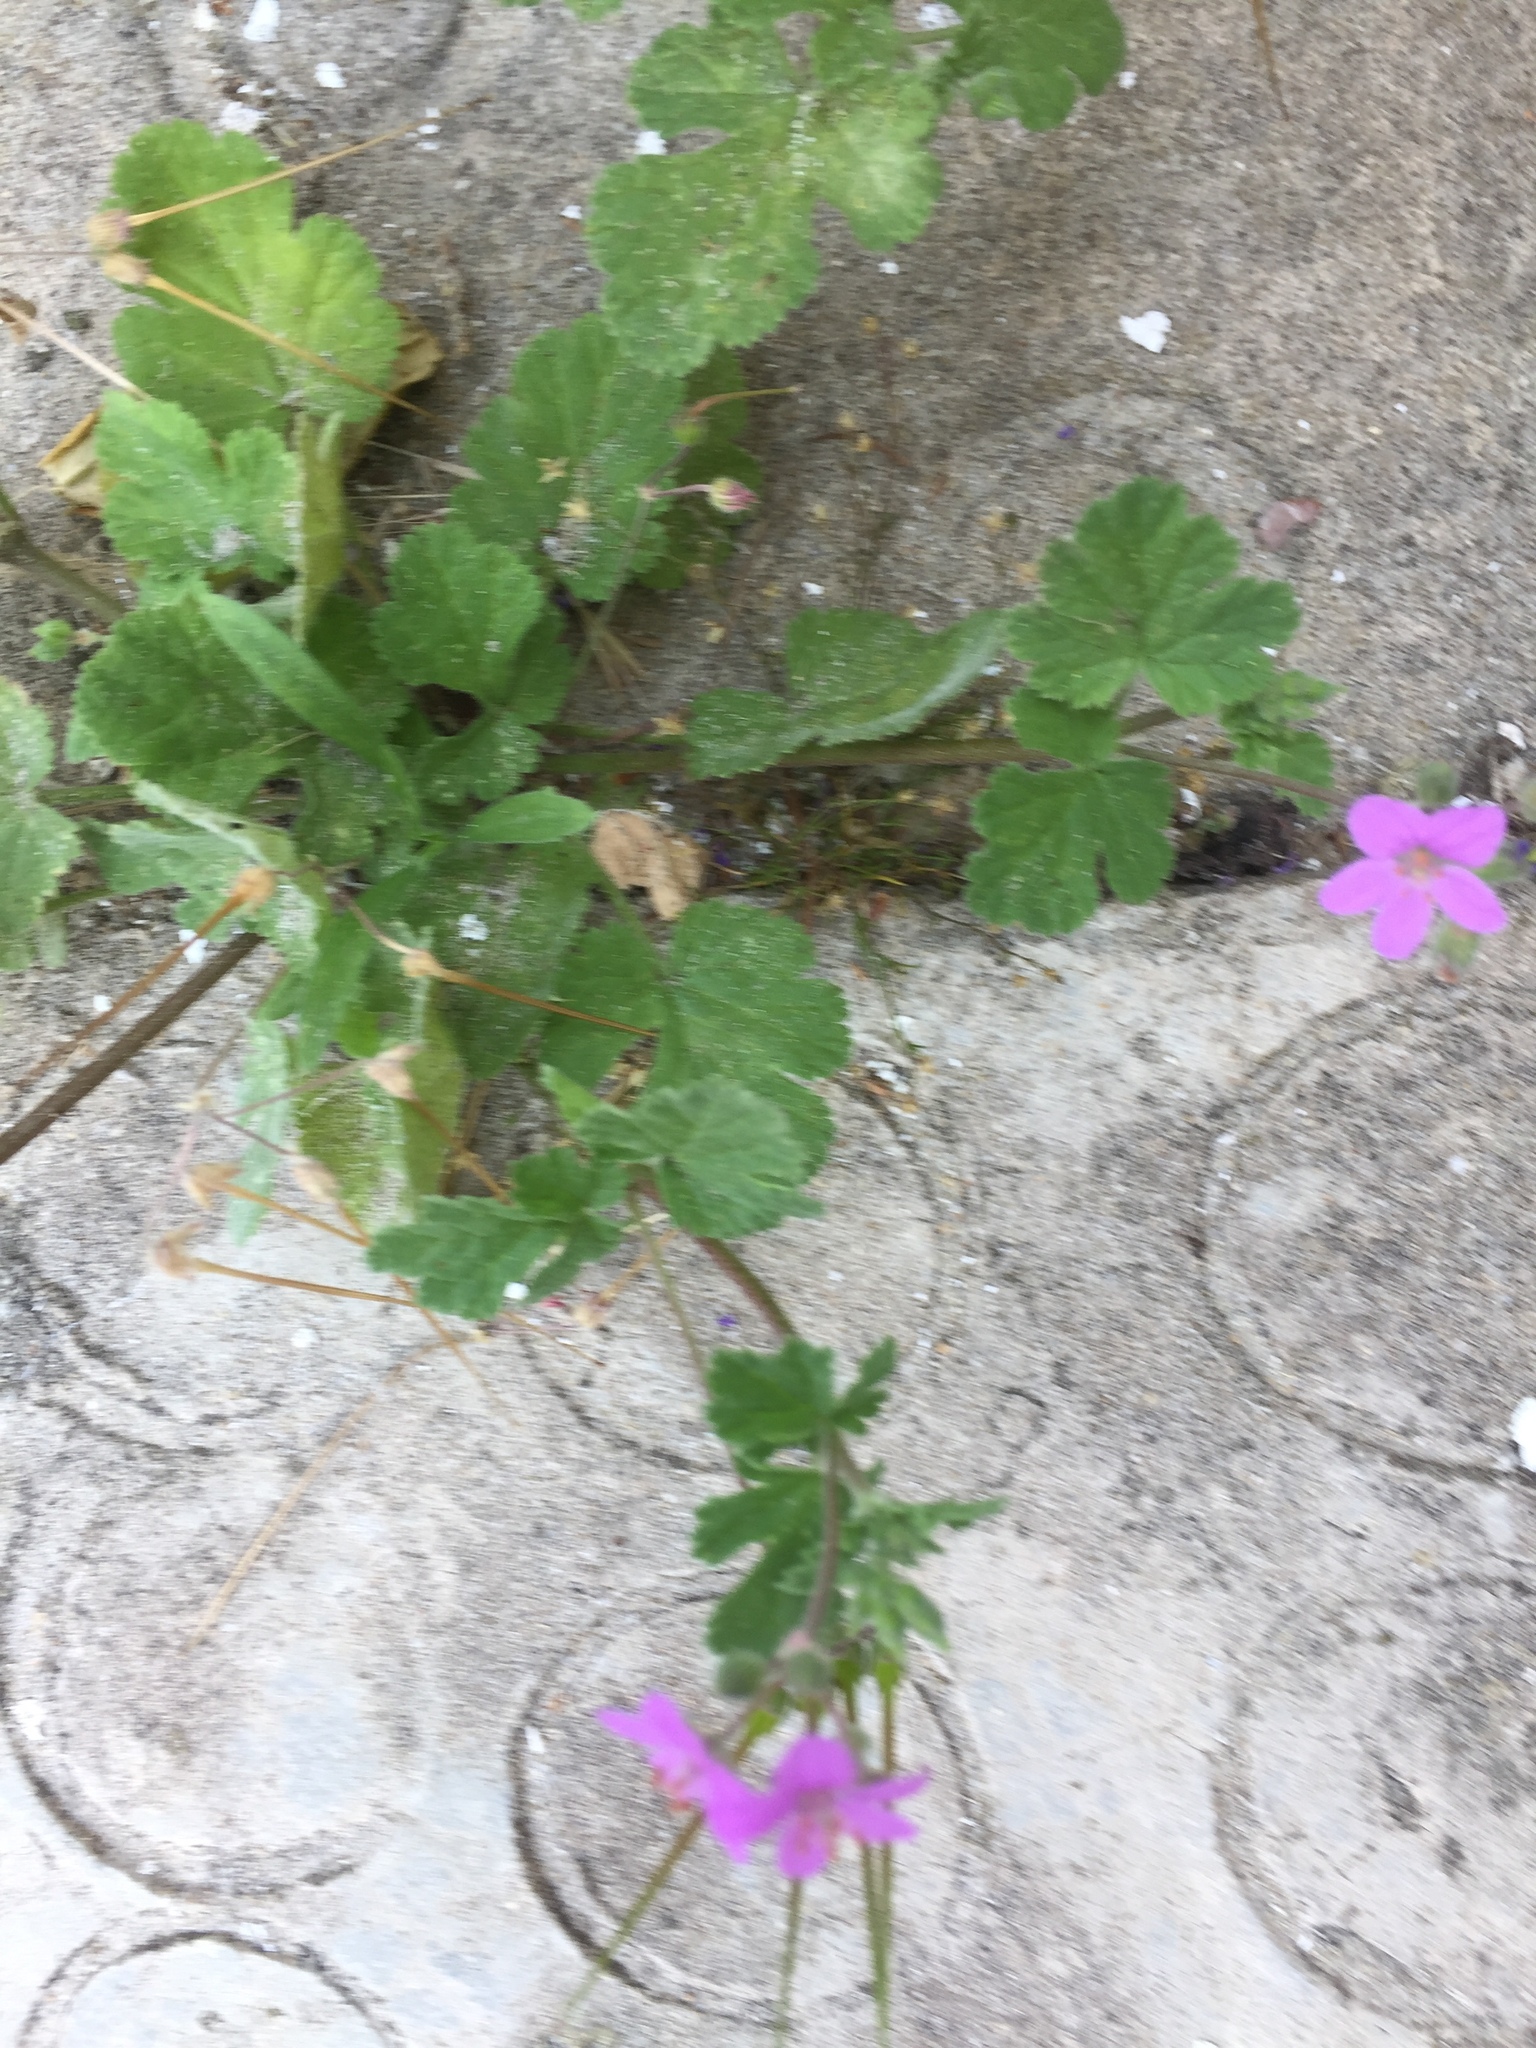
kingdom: Plantae
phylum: Tracheophyta
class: Magnoliopsida
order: Geraniales
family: Geraniaceae
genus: Erodium
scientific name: Erodium moschatum
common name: Musk stork's-bill
